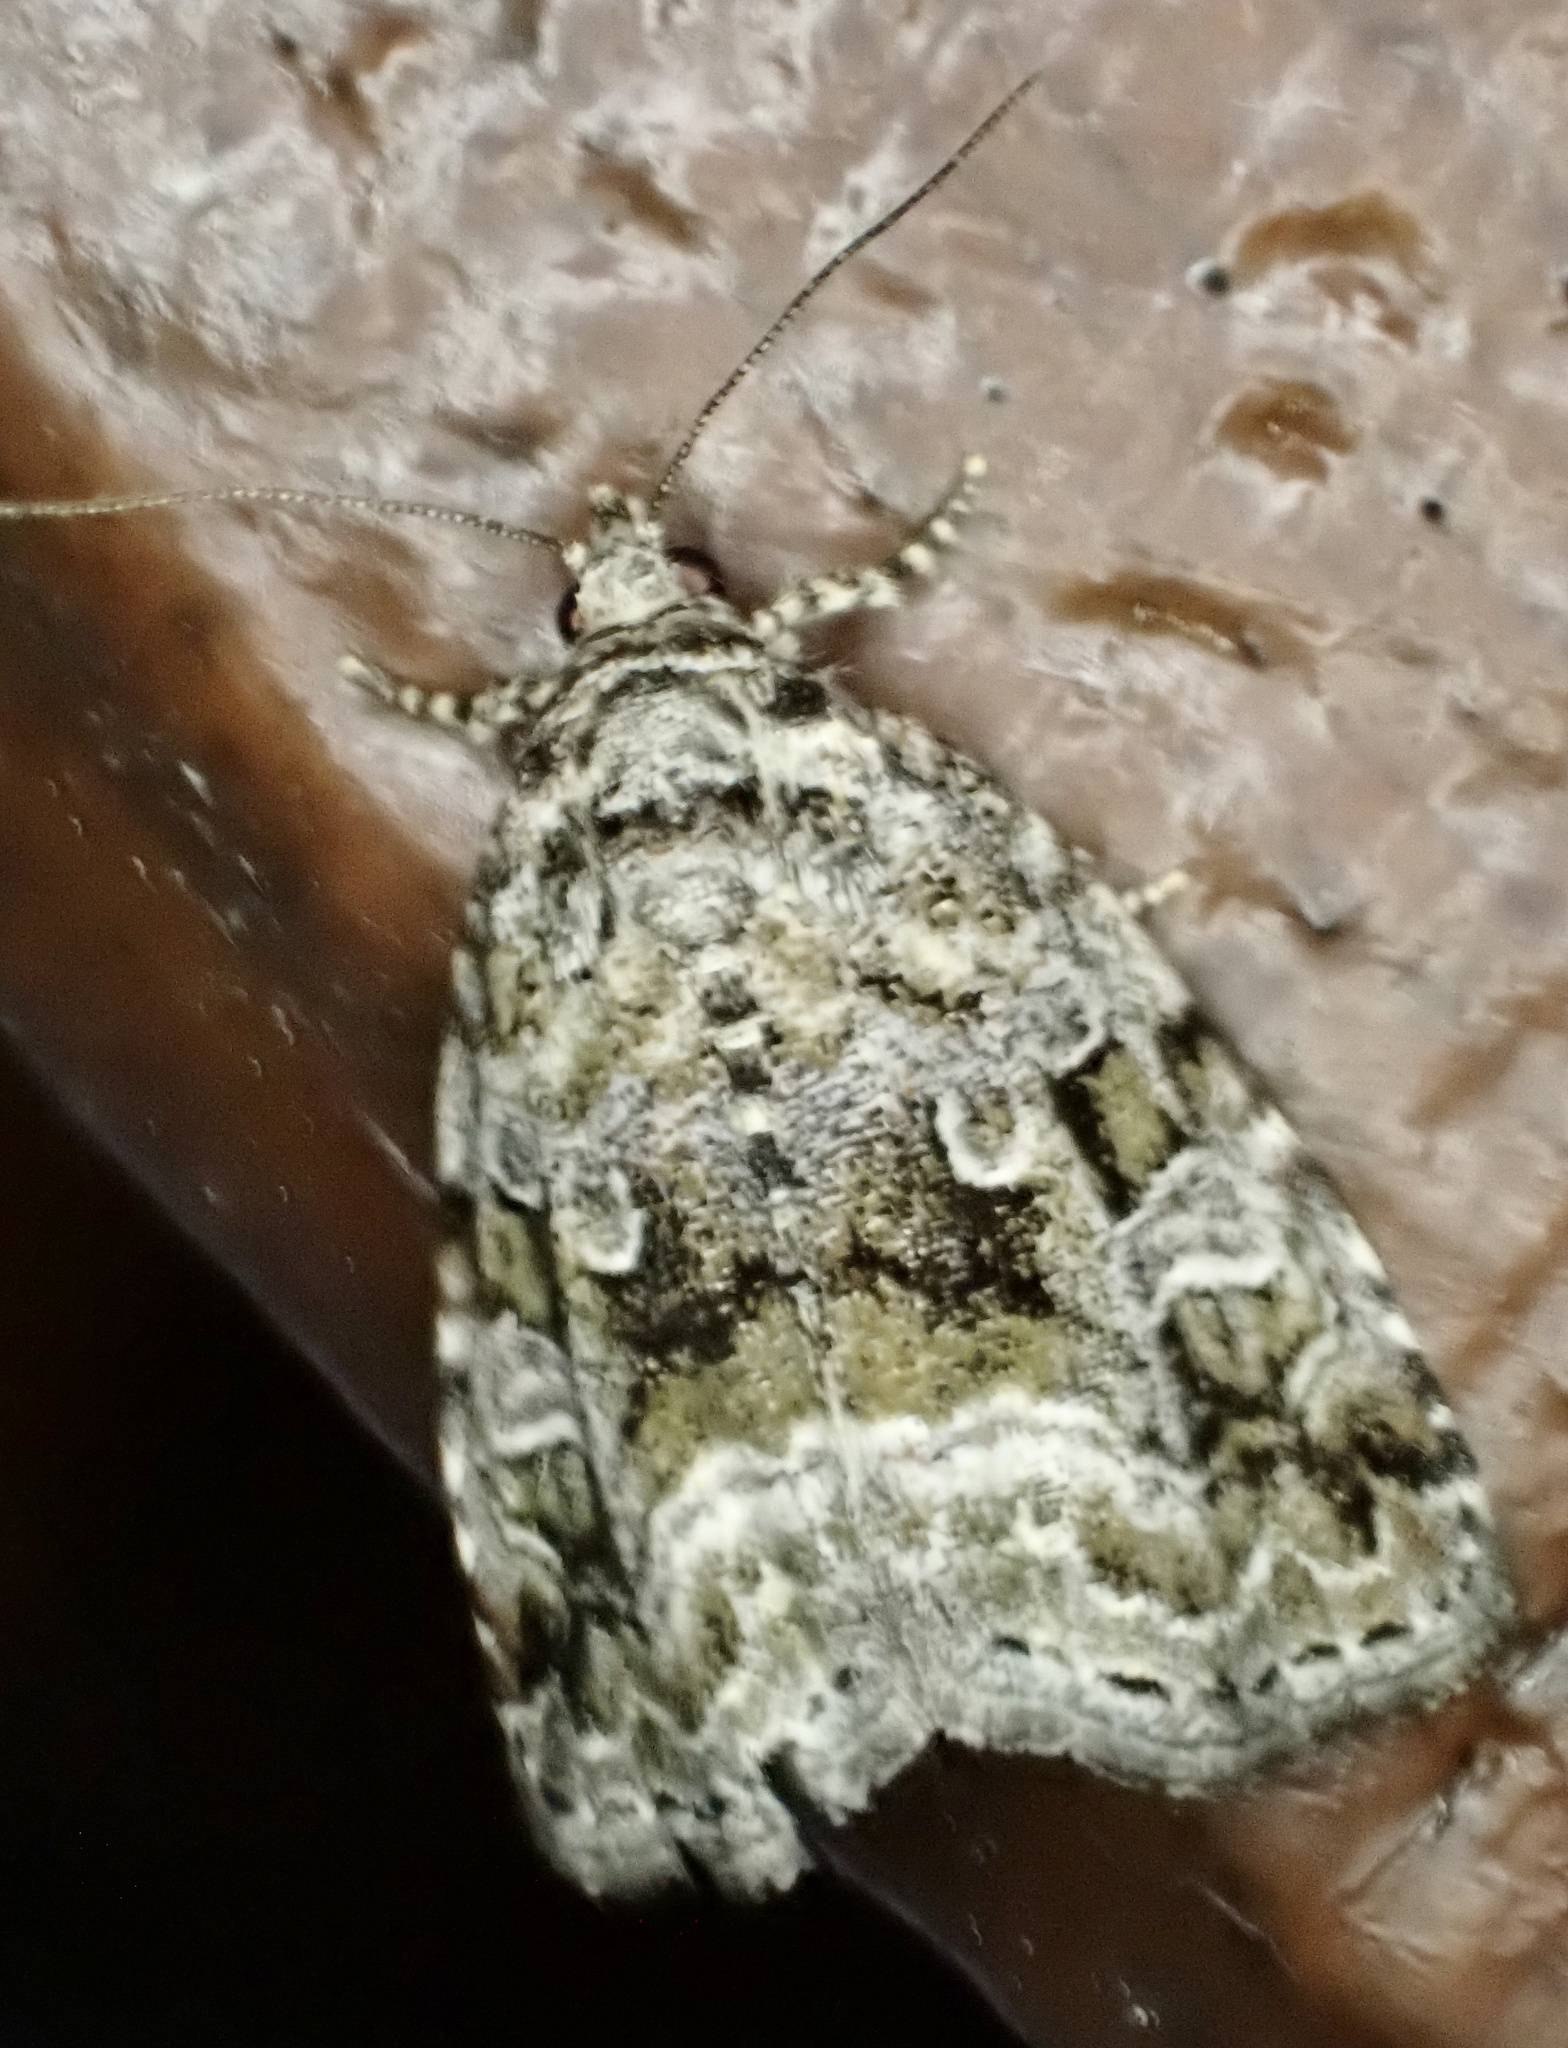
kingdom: Animalia
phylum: Arthropoda
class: Insecta
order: Lepidoptera
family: Noctuidae
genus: Protodeltote
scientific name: Protodeltote muscosula
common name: Large mossy glyph
